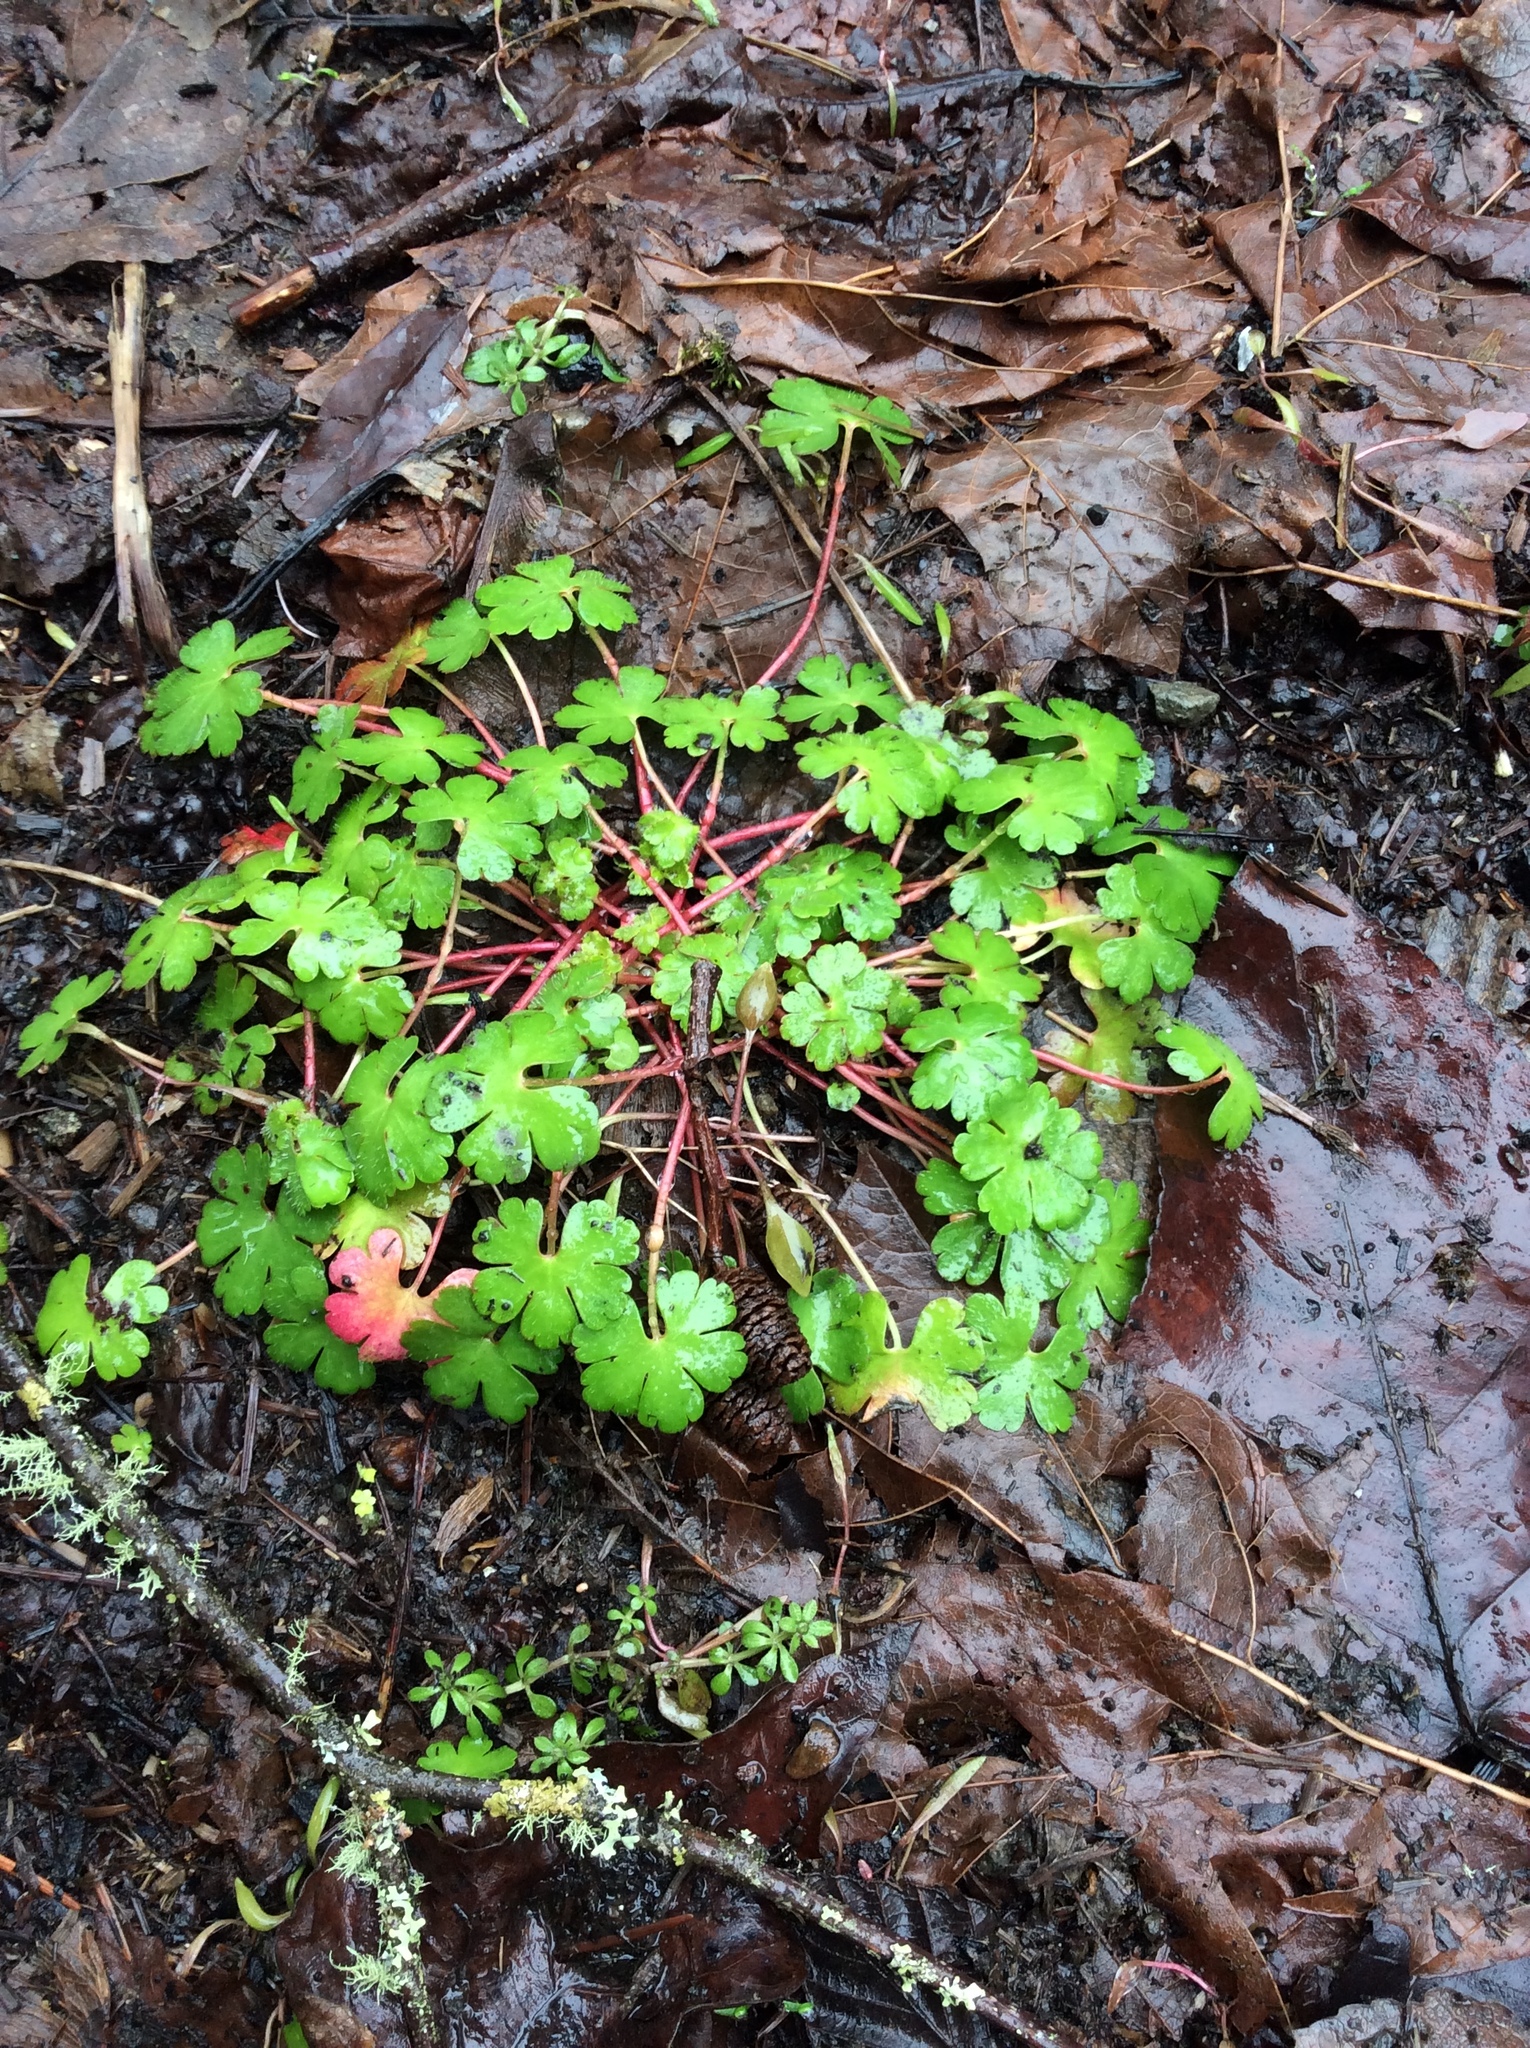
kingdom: Plantae
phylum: Tracheophyta
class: Magnoliopsida
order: Geraniales
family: Geraniaceae
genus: Geranium
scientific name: Geranium lucidum
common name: Shining crane's-bill
